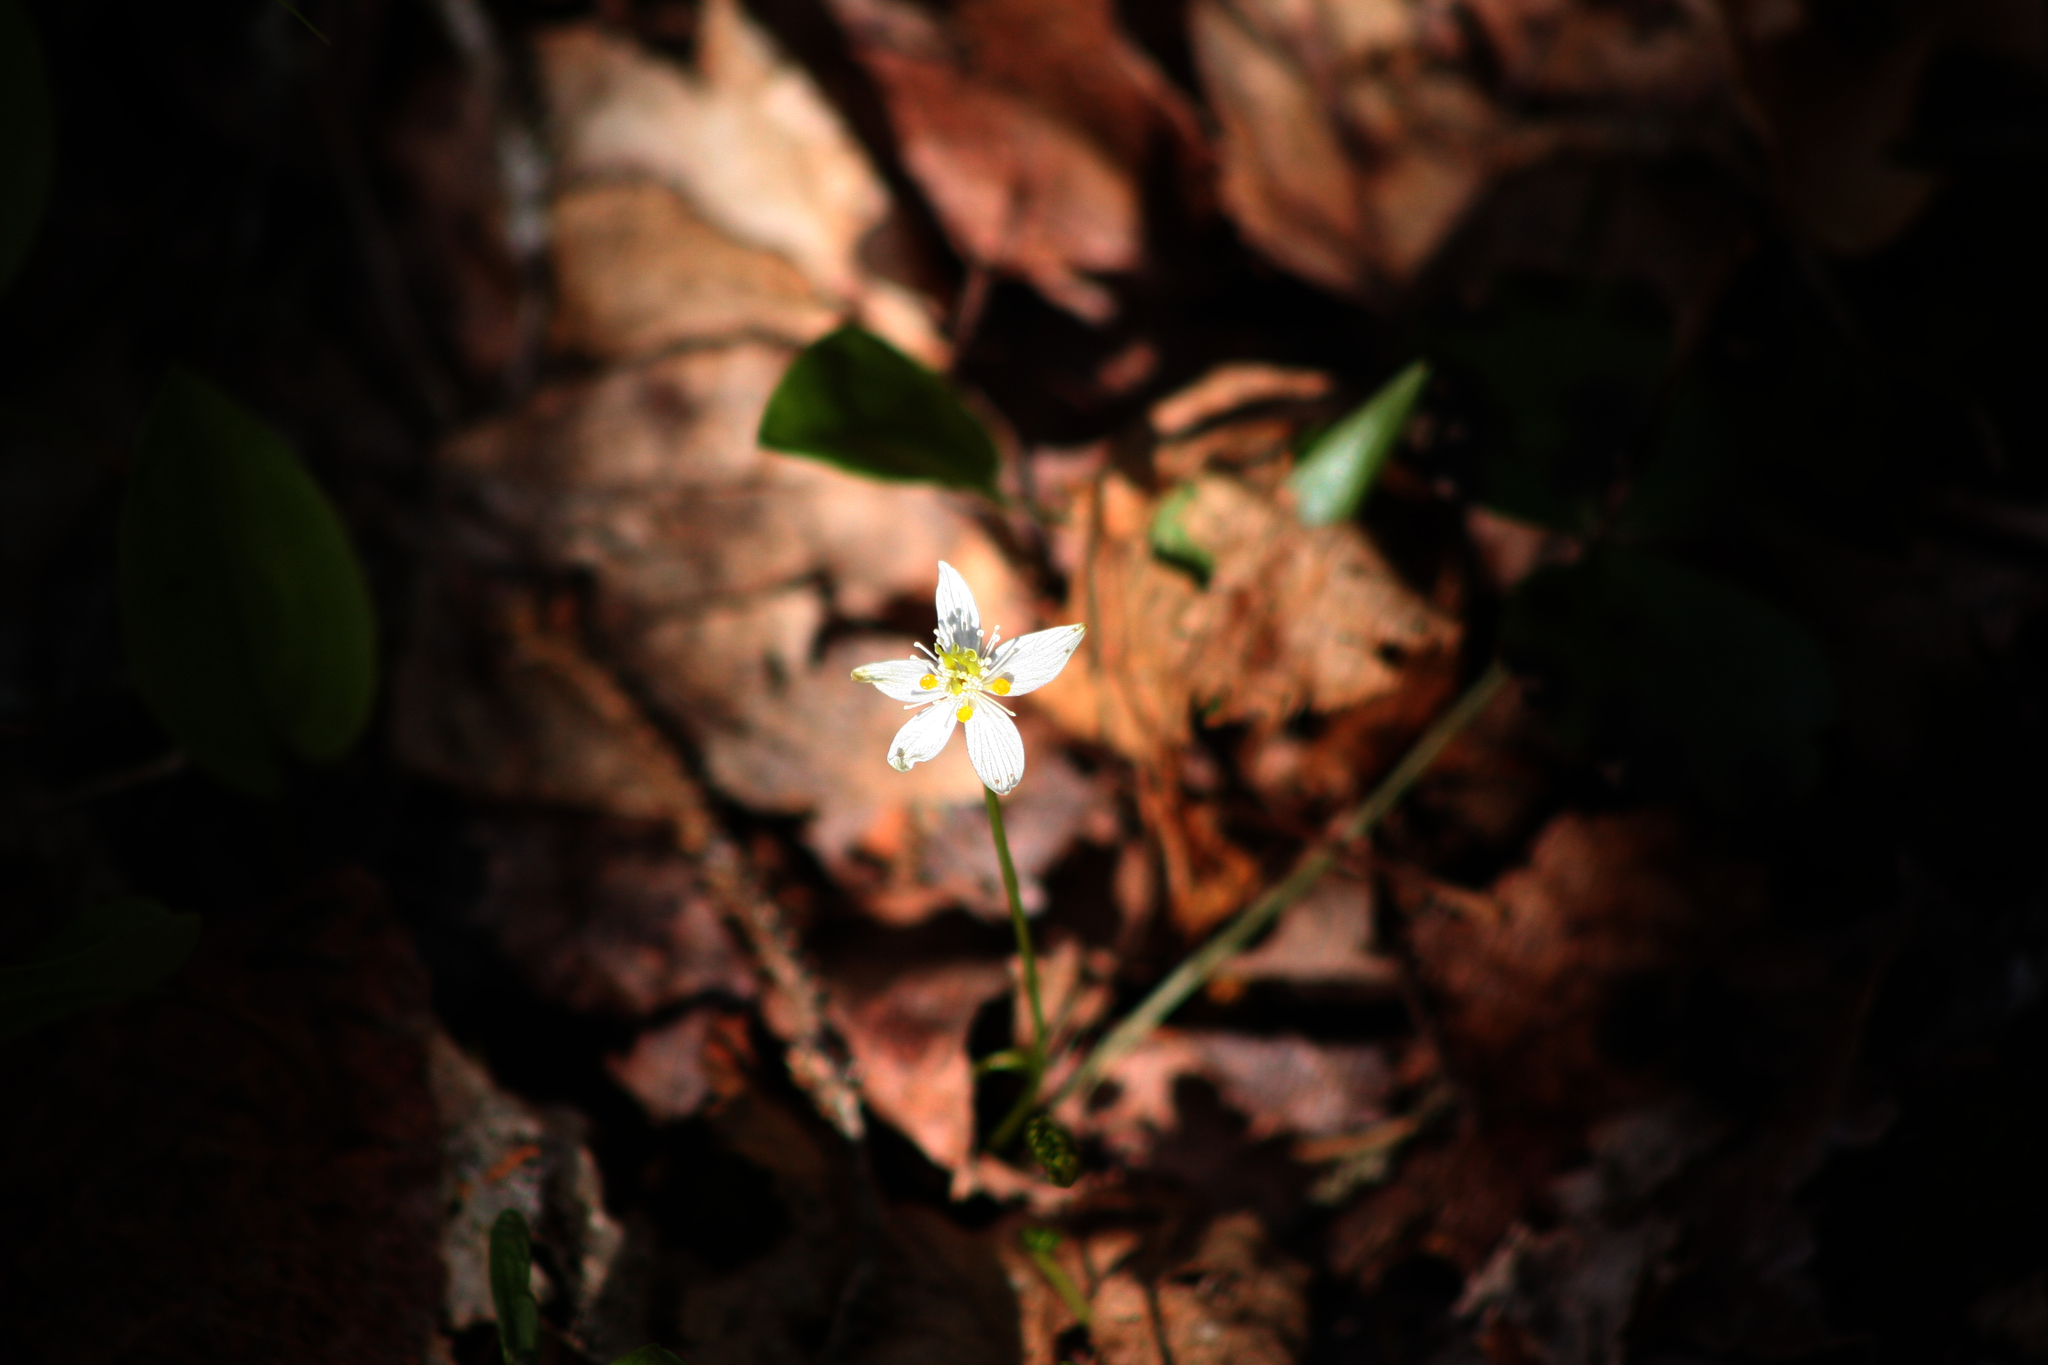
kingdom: Plantae
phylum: Tracheophyta
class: Magnoliopsida
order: Ranunculales
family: Ranunculaceae
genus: Coptis
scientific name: Coptis trifolia
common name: Canker-root
